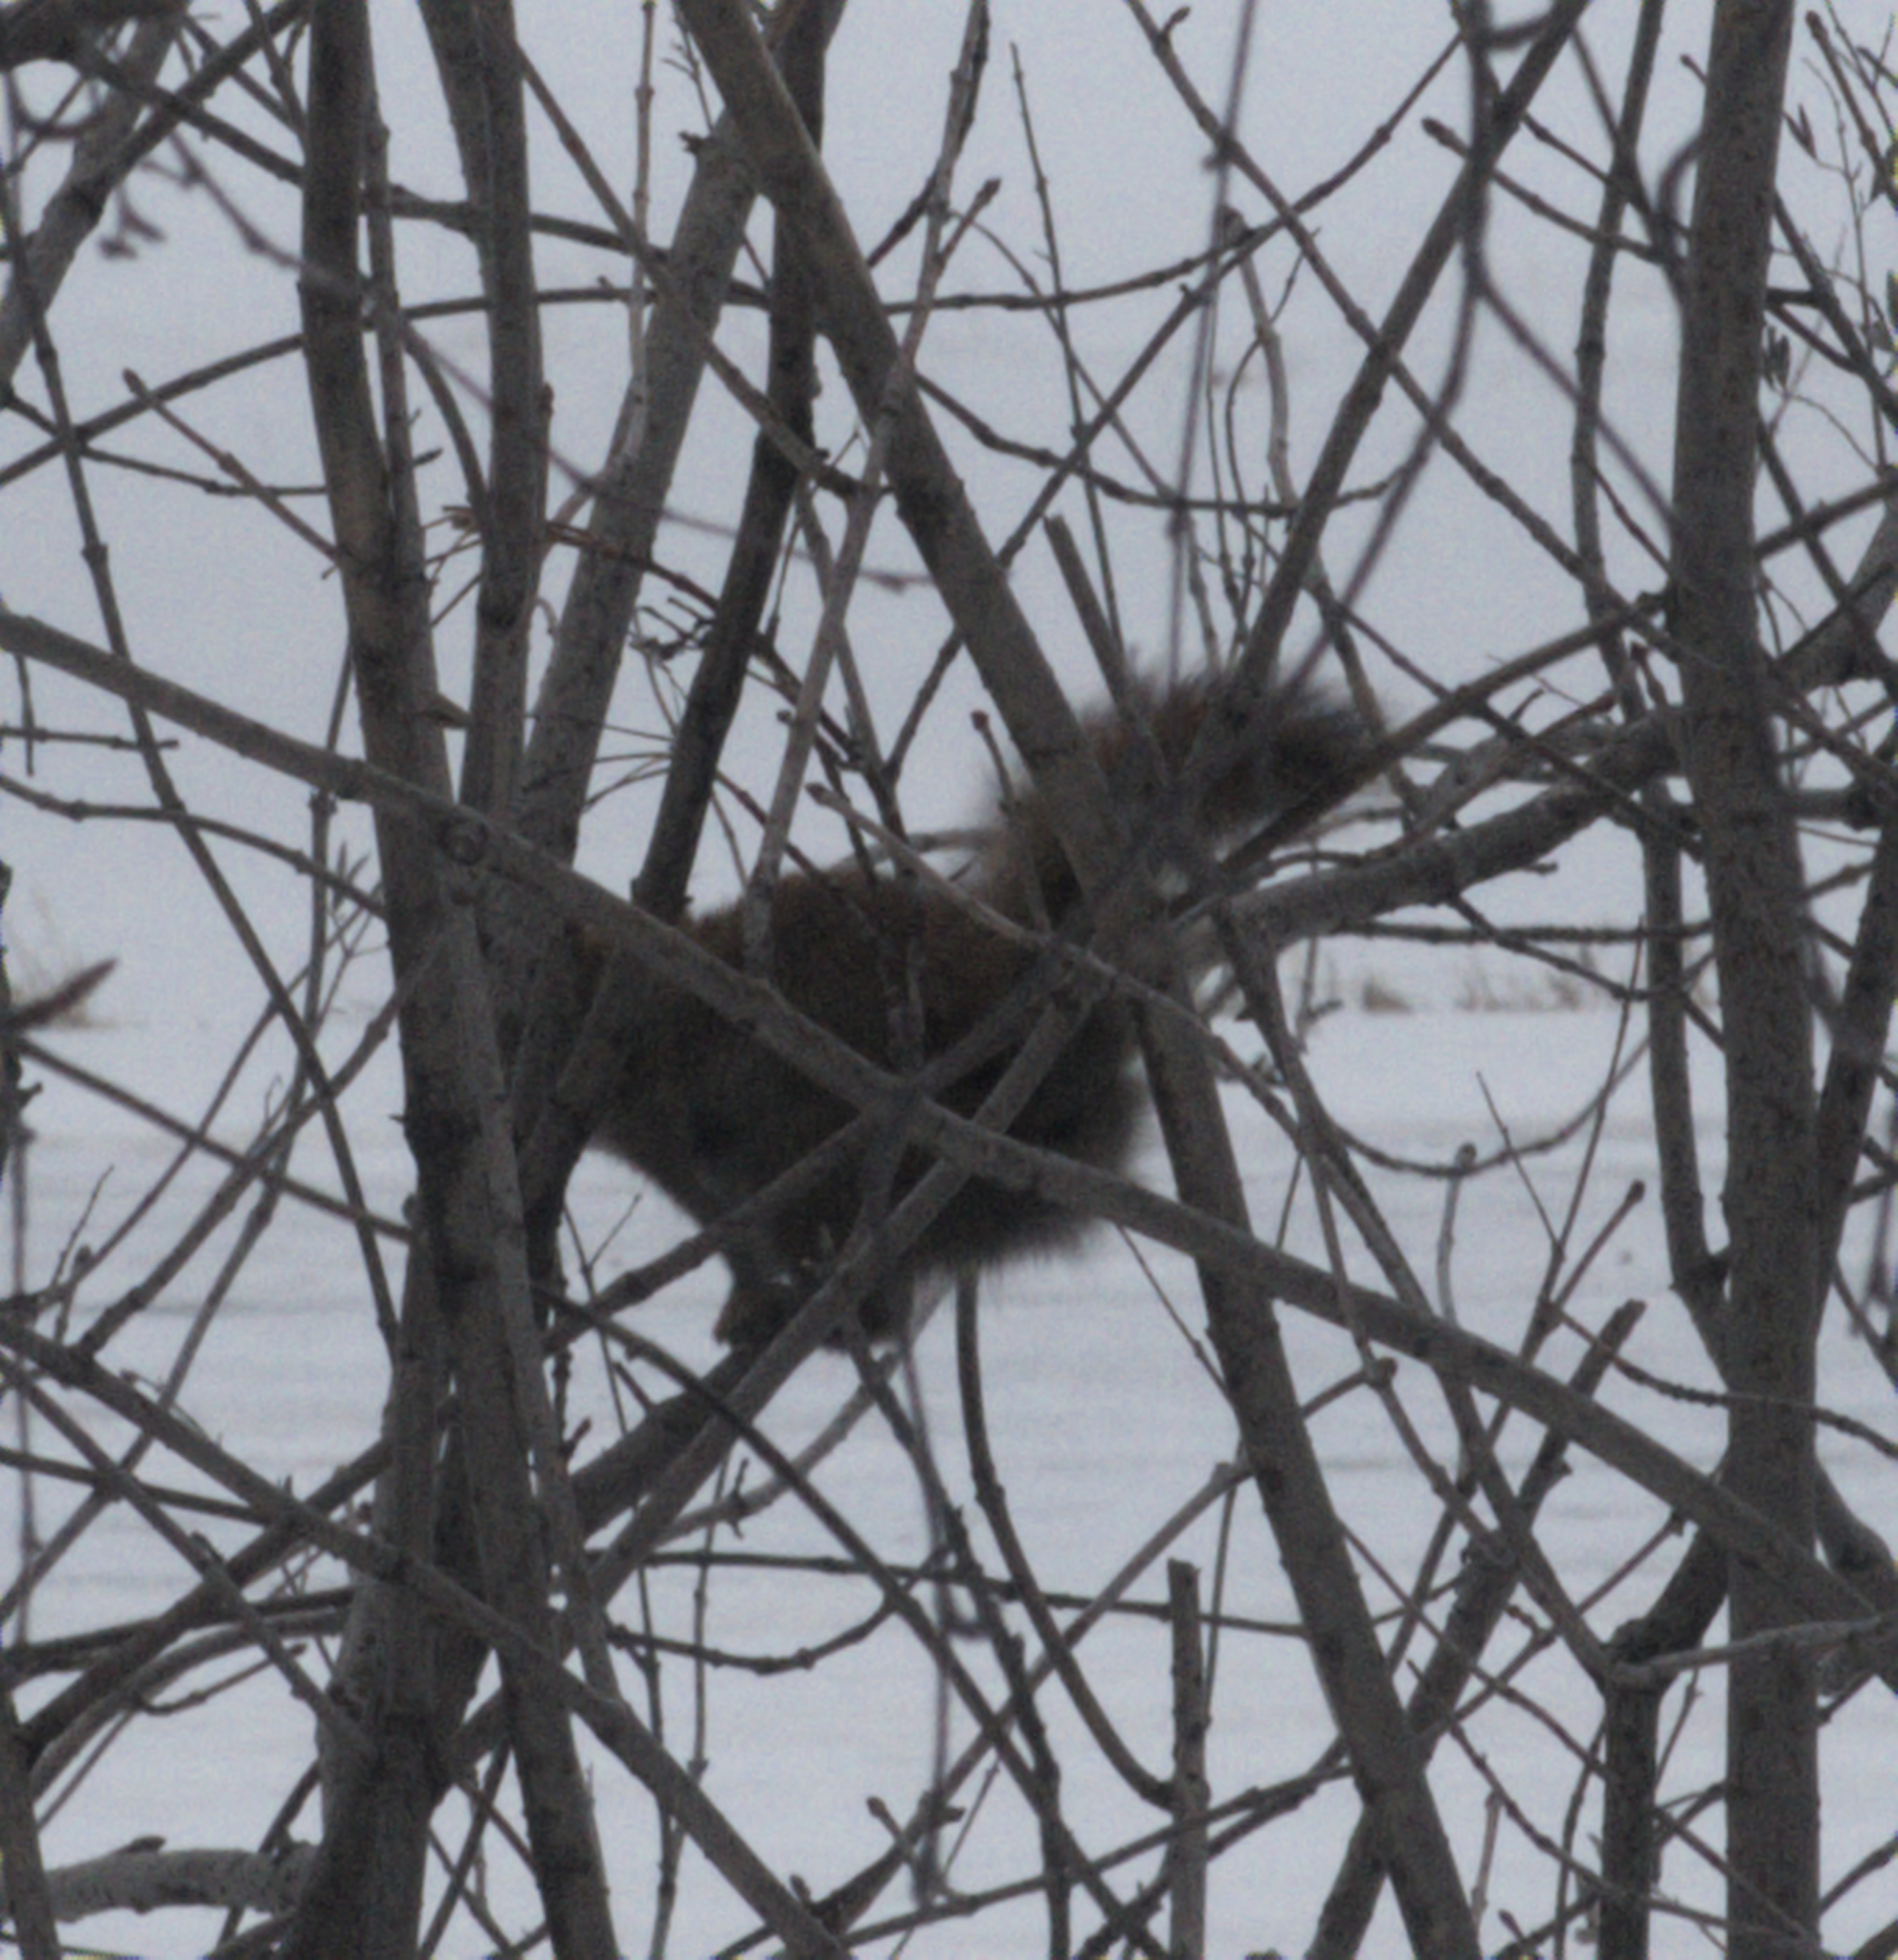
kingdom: Animalia
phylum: Chordata
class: Mammalia
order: Rodentia
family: Sciuridae
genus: Tamiasciurus
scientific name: Tamiasciurus hudsonicus
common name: Red squirrel
